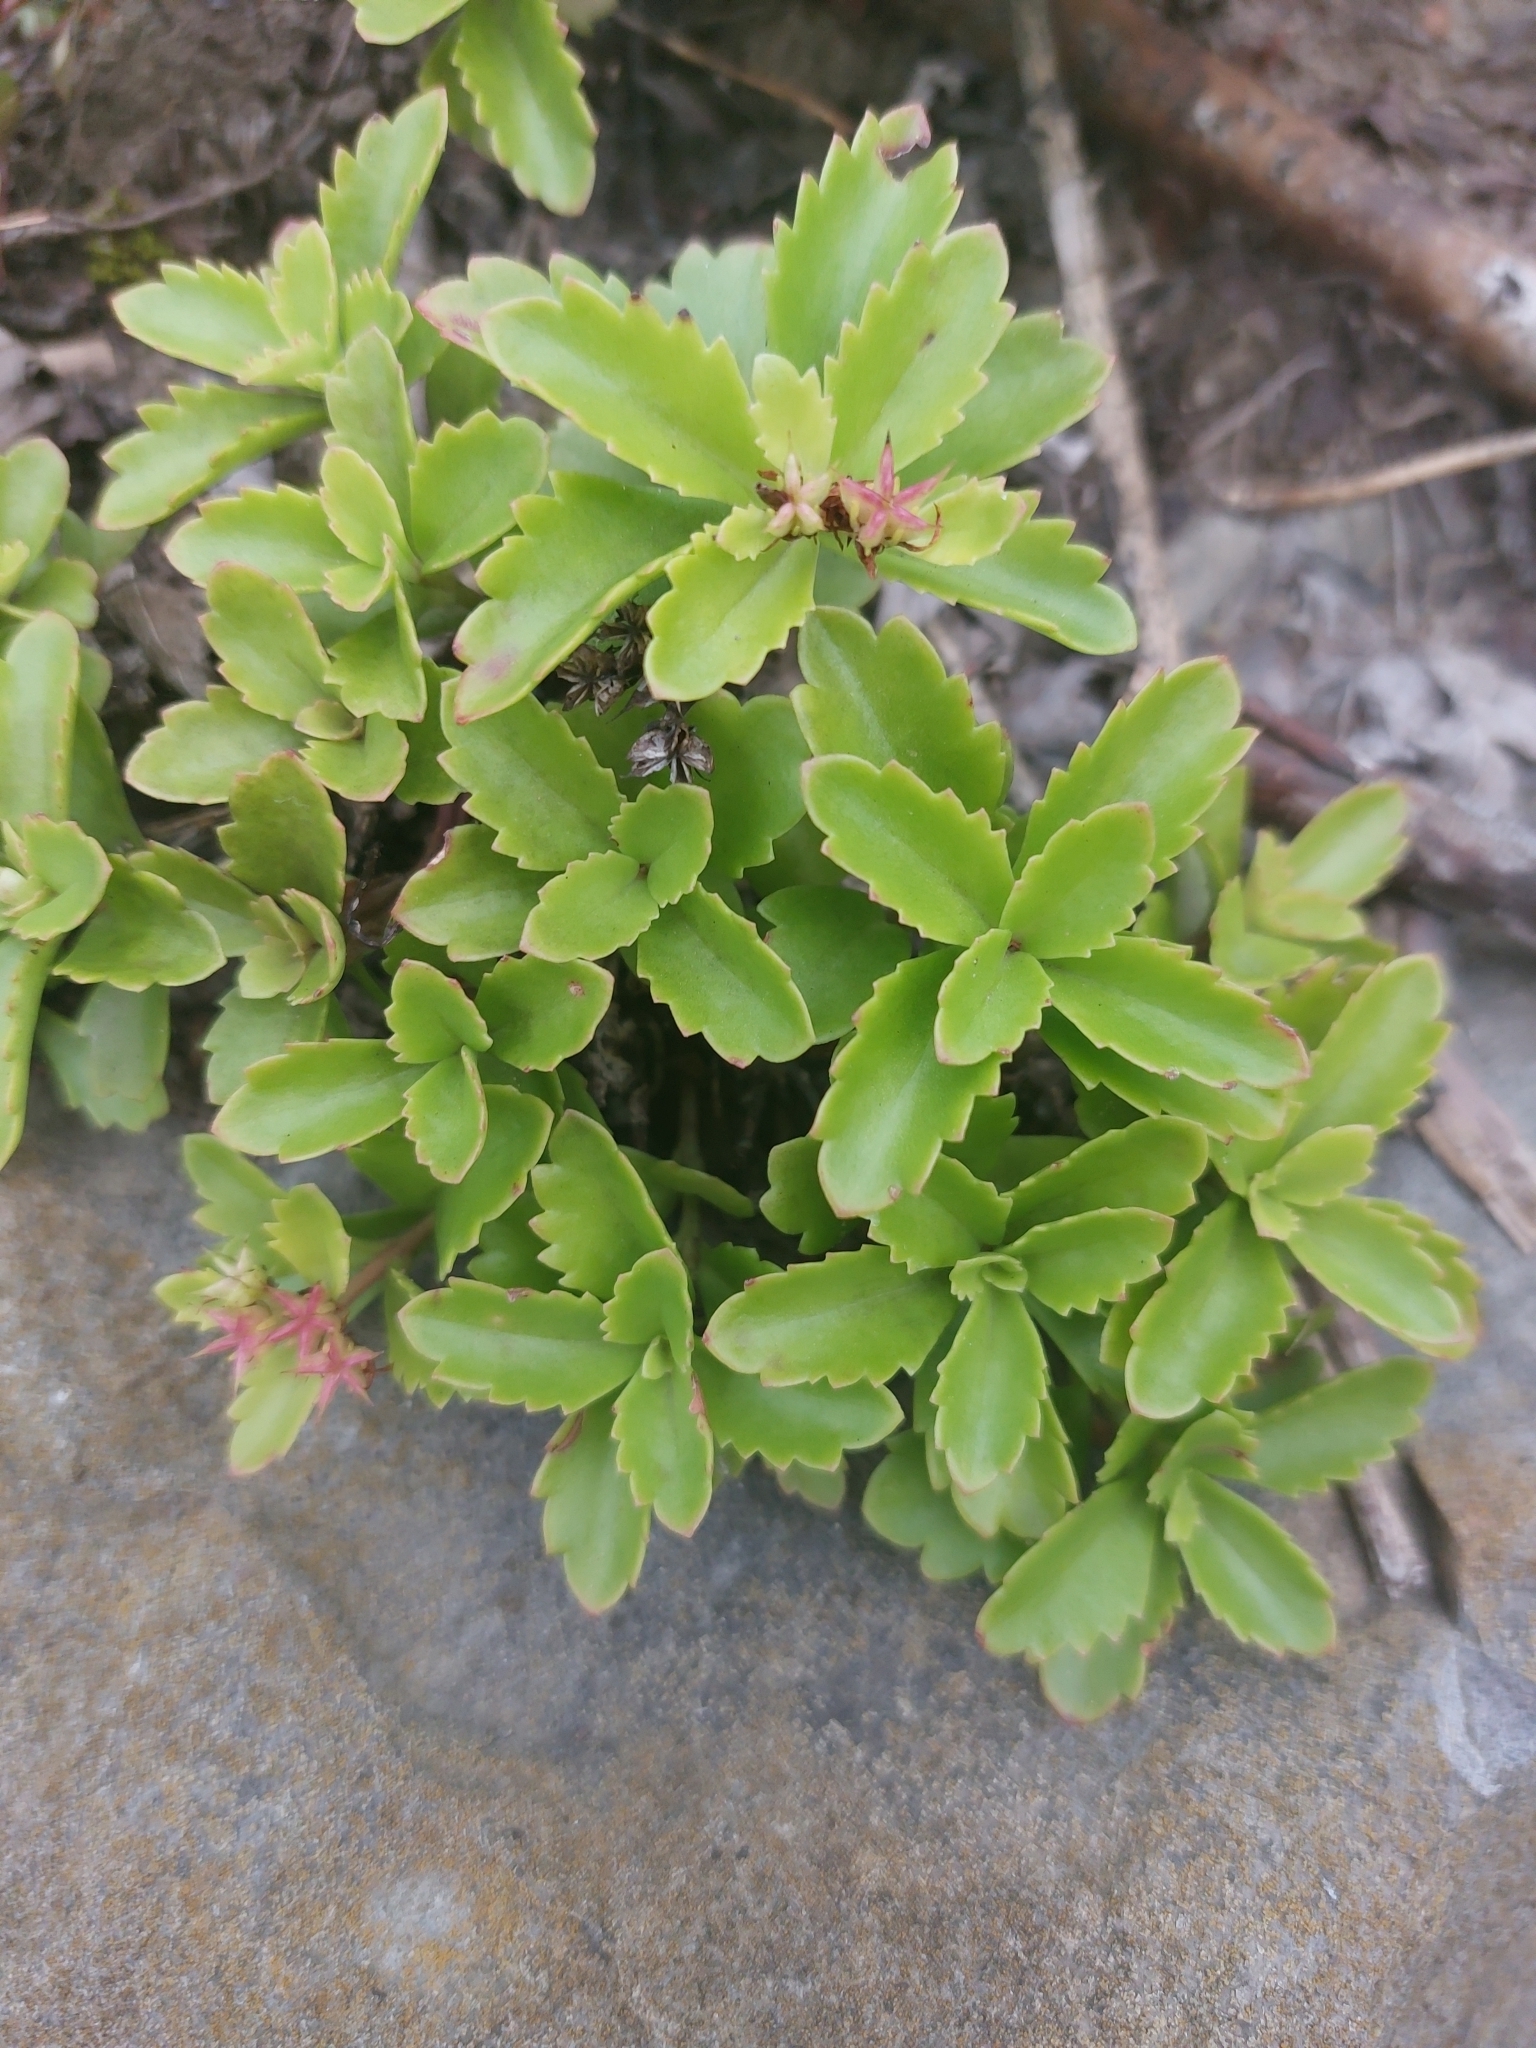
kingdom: Plantae
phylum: Tracheophyta
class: Magnoliopsida
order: Saxifragales
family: Crassulaceae
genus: Phedimus
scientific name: Phedimus ellacombeanus
